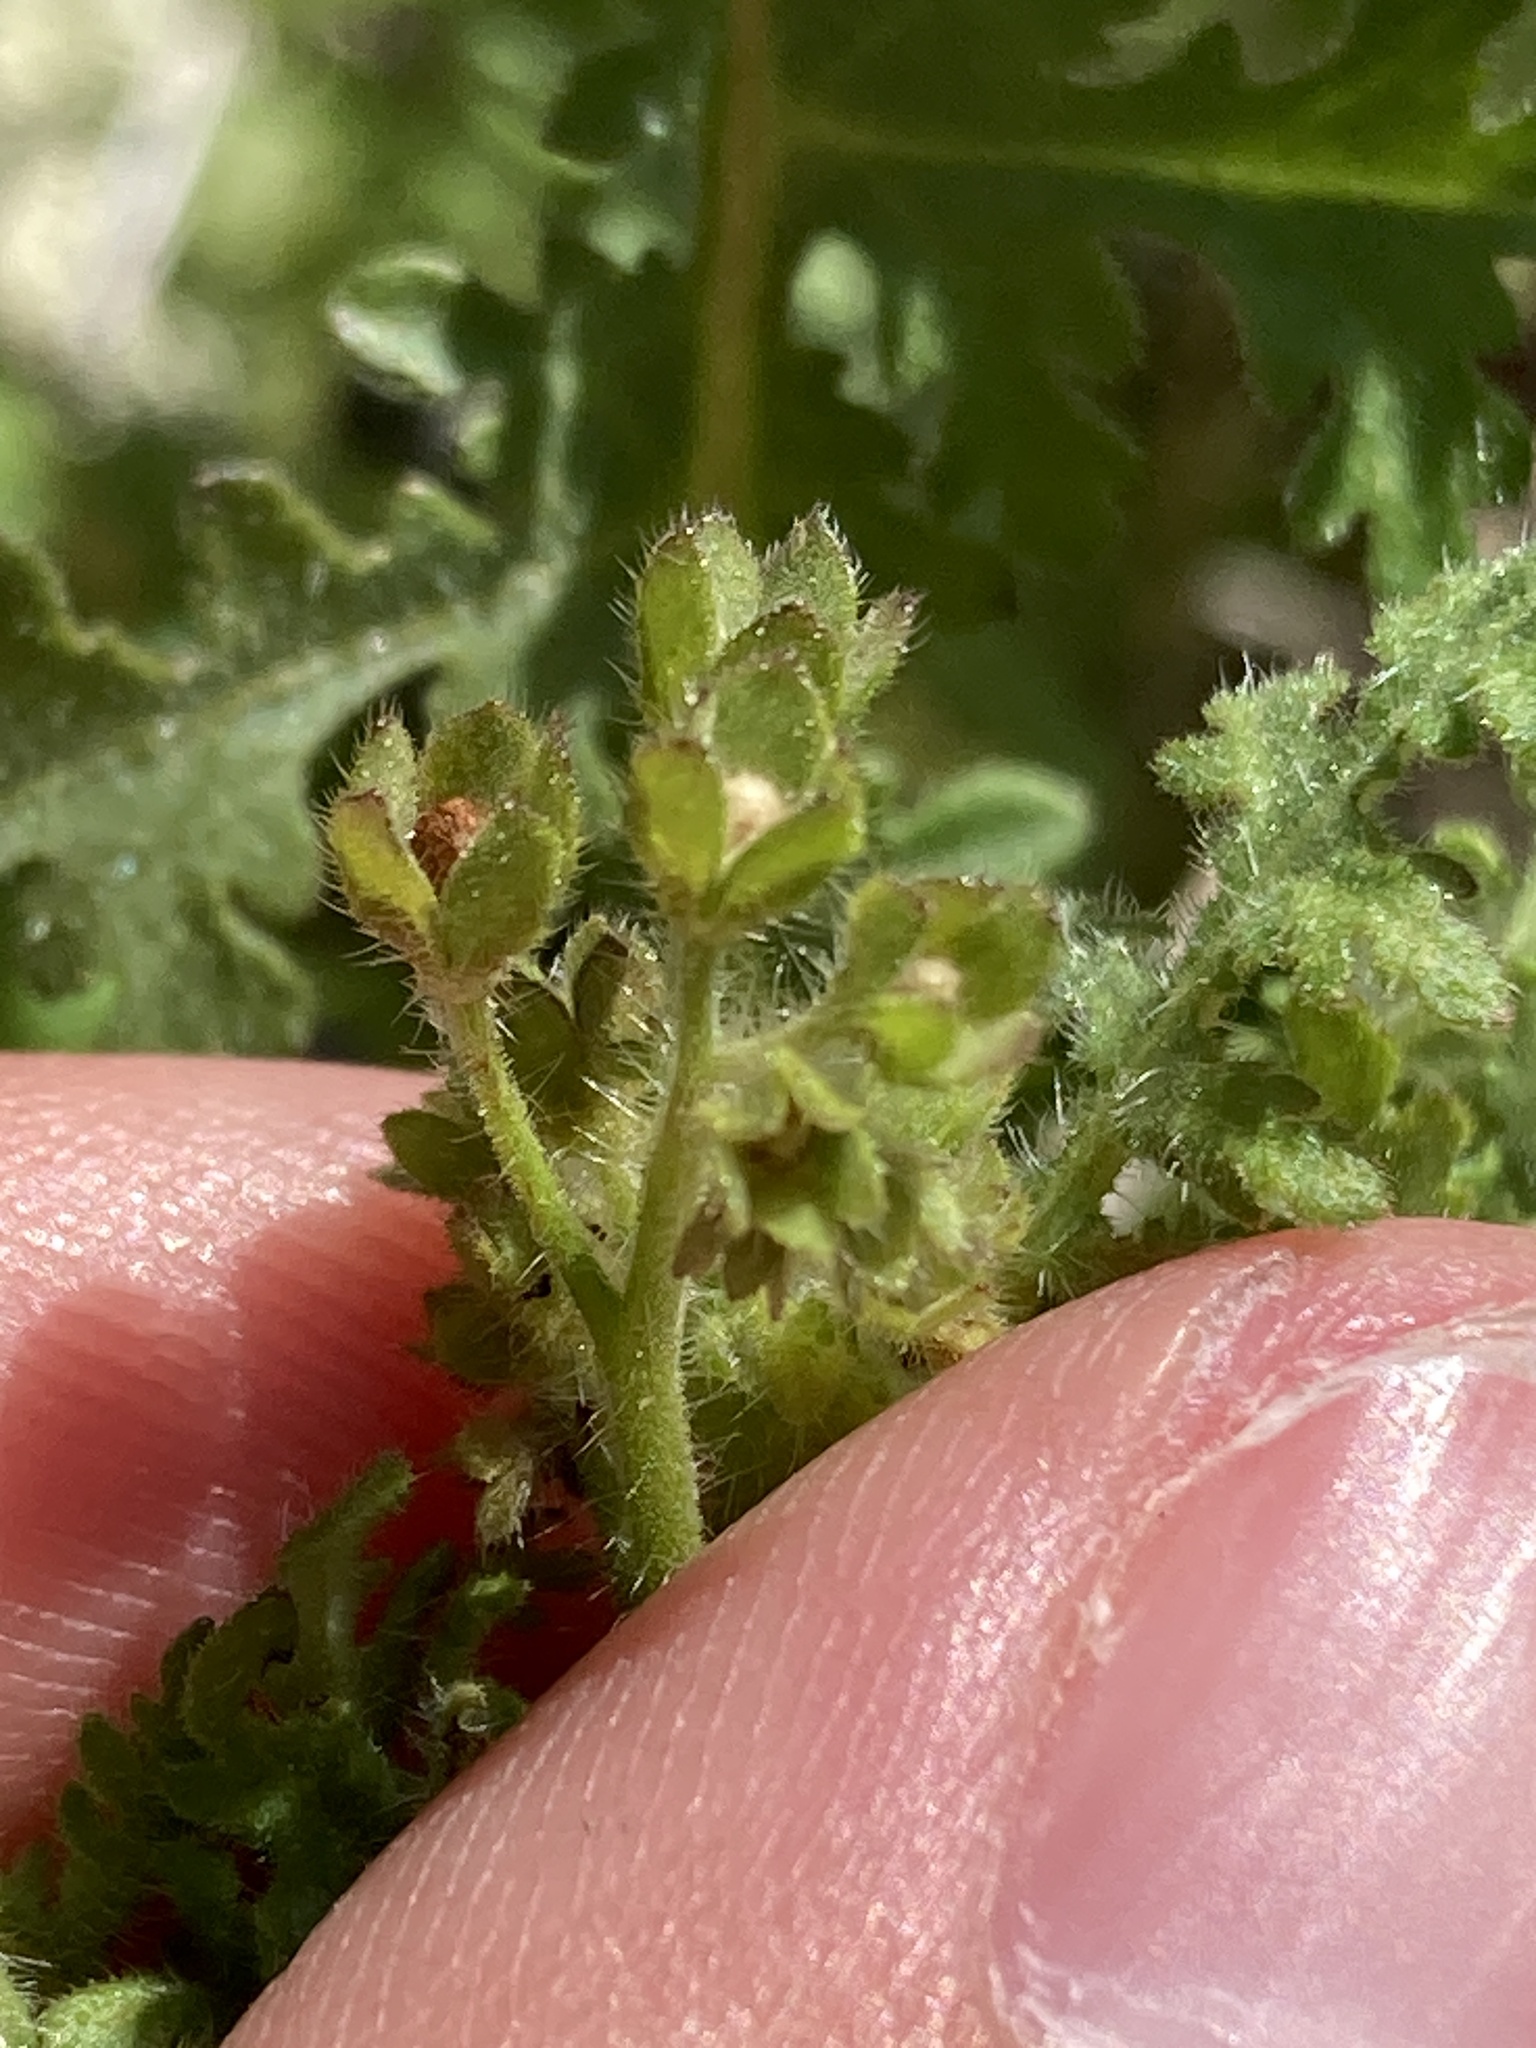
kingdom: Plantae
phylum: Tracheophyta
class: Magnoliopsida
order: Boraginales
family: Hydrophyllaceae
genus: Eucrypta
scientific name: Eucrypta chrysanthemifolia
